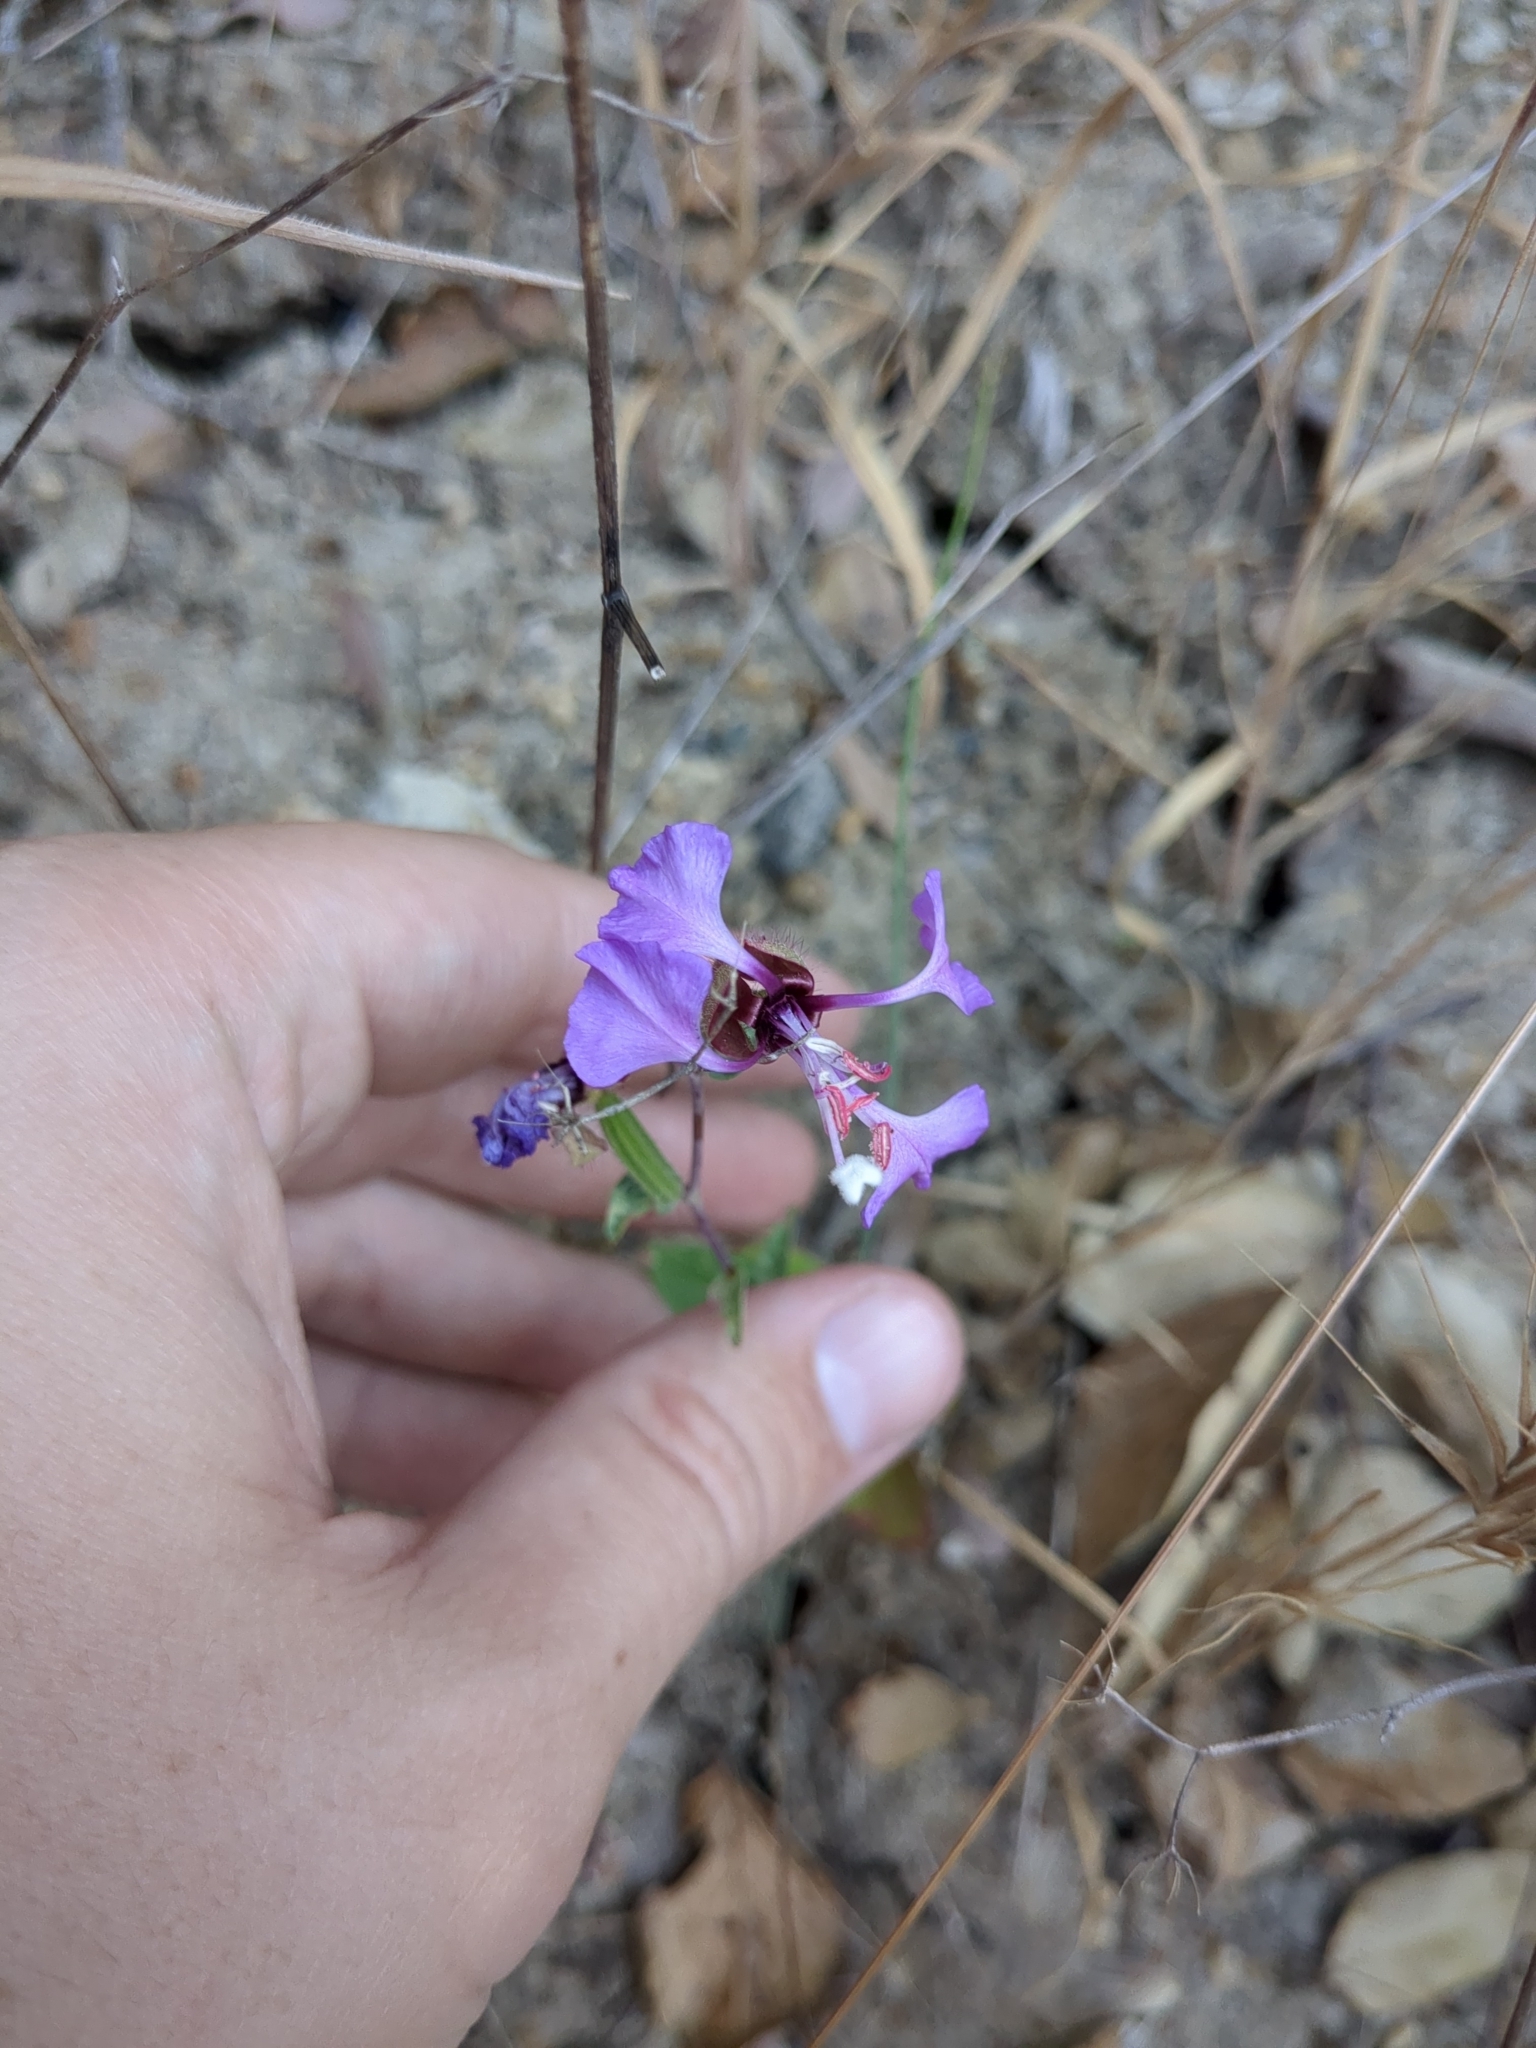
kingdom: Plantae
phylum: Tracheophyta
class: Magnoliopsida
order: Myrtales
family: Onagraceae
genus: Clarkia
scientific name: Clarkia unguiculata
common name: Clarkia
